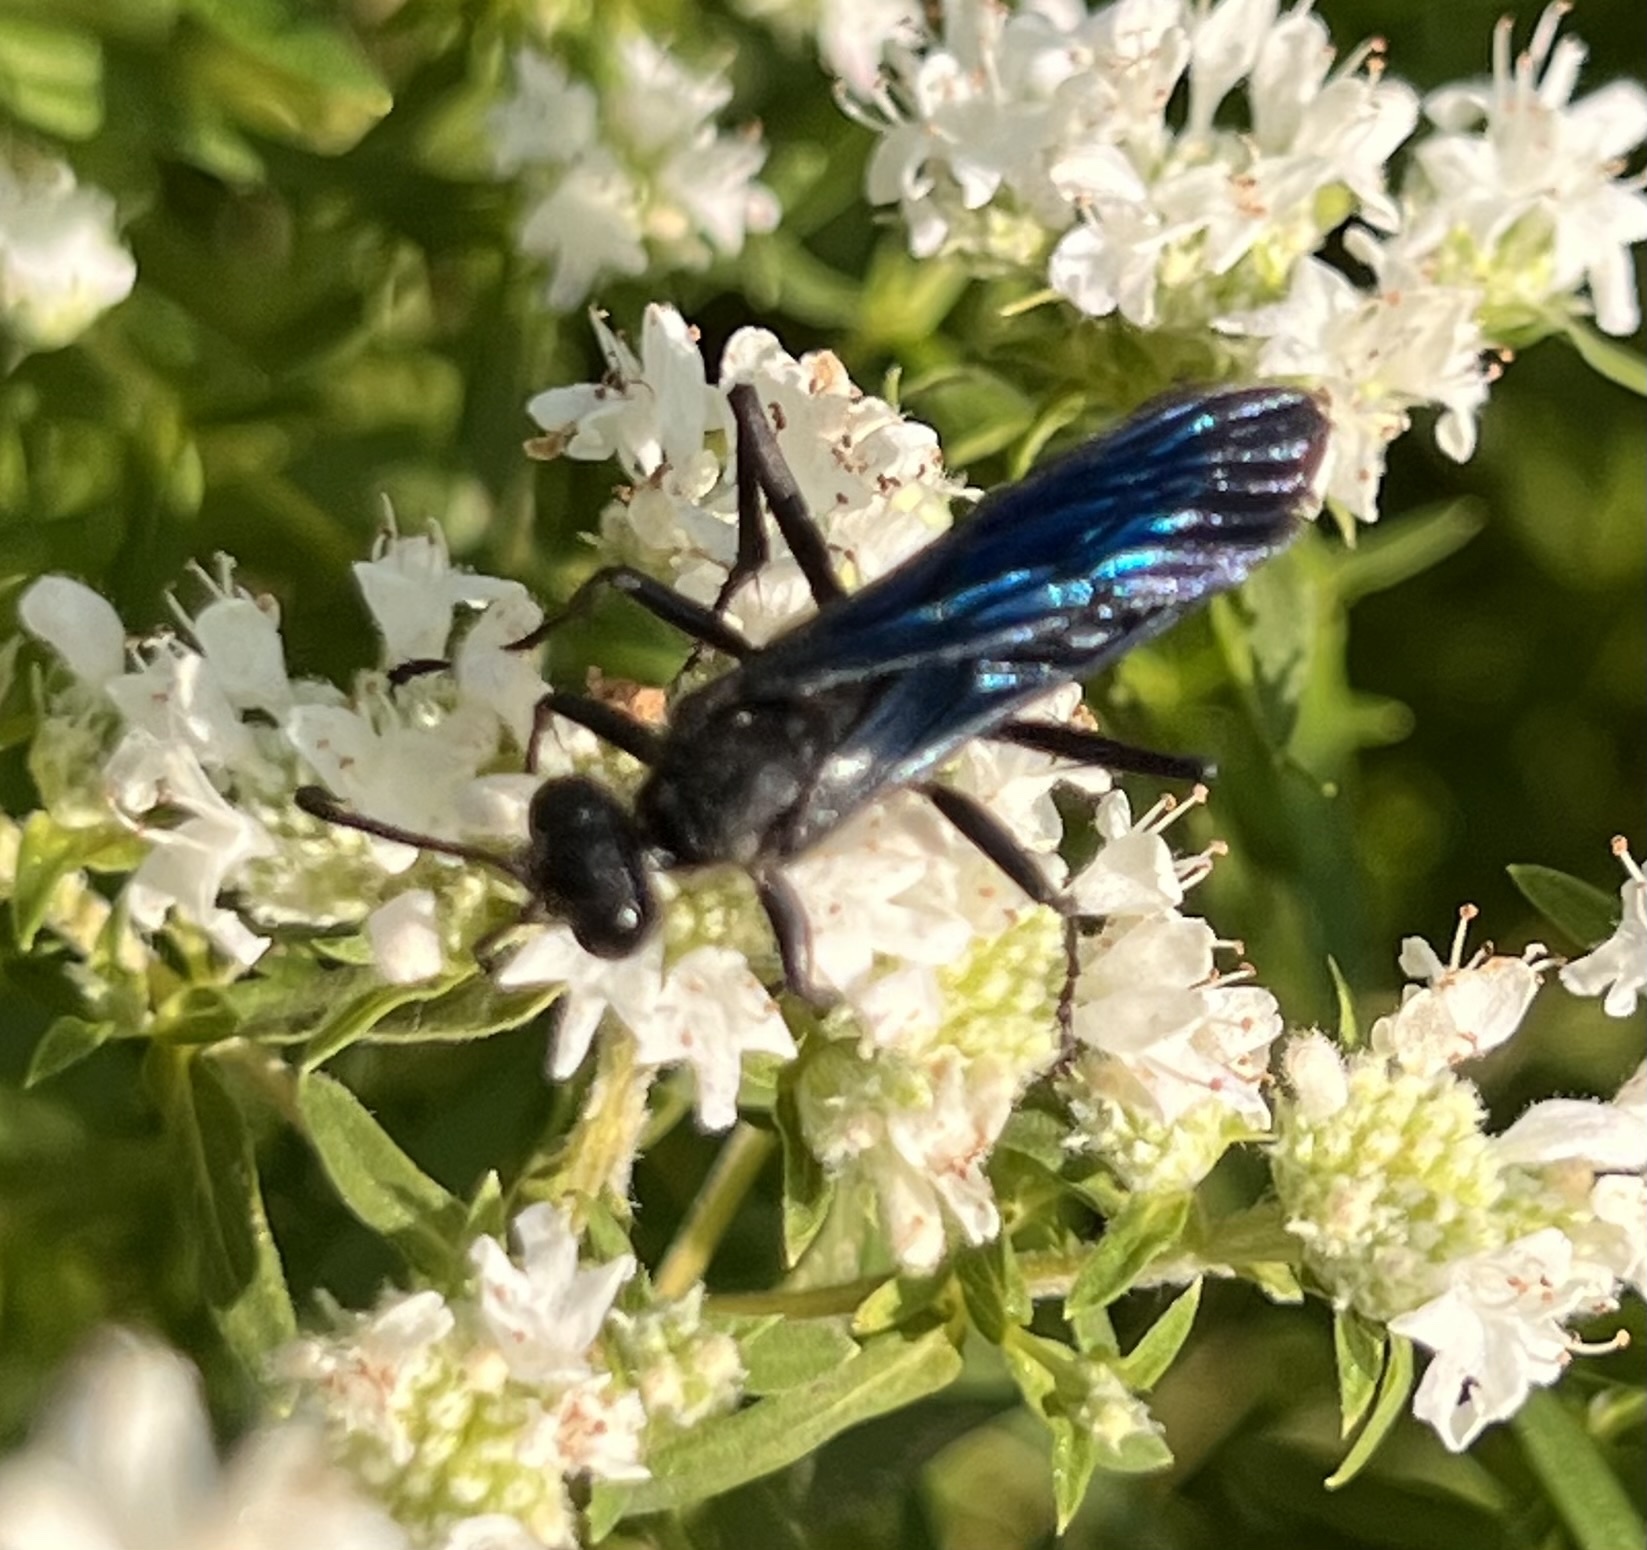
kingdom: Animalia
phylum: Arthropoda
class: Insecta
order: Hymenoptera
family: Sphecidae
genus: Sphex
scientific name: Sphex pensylvanicus
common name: Great black digger wasp
